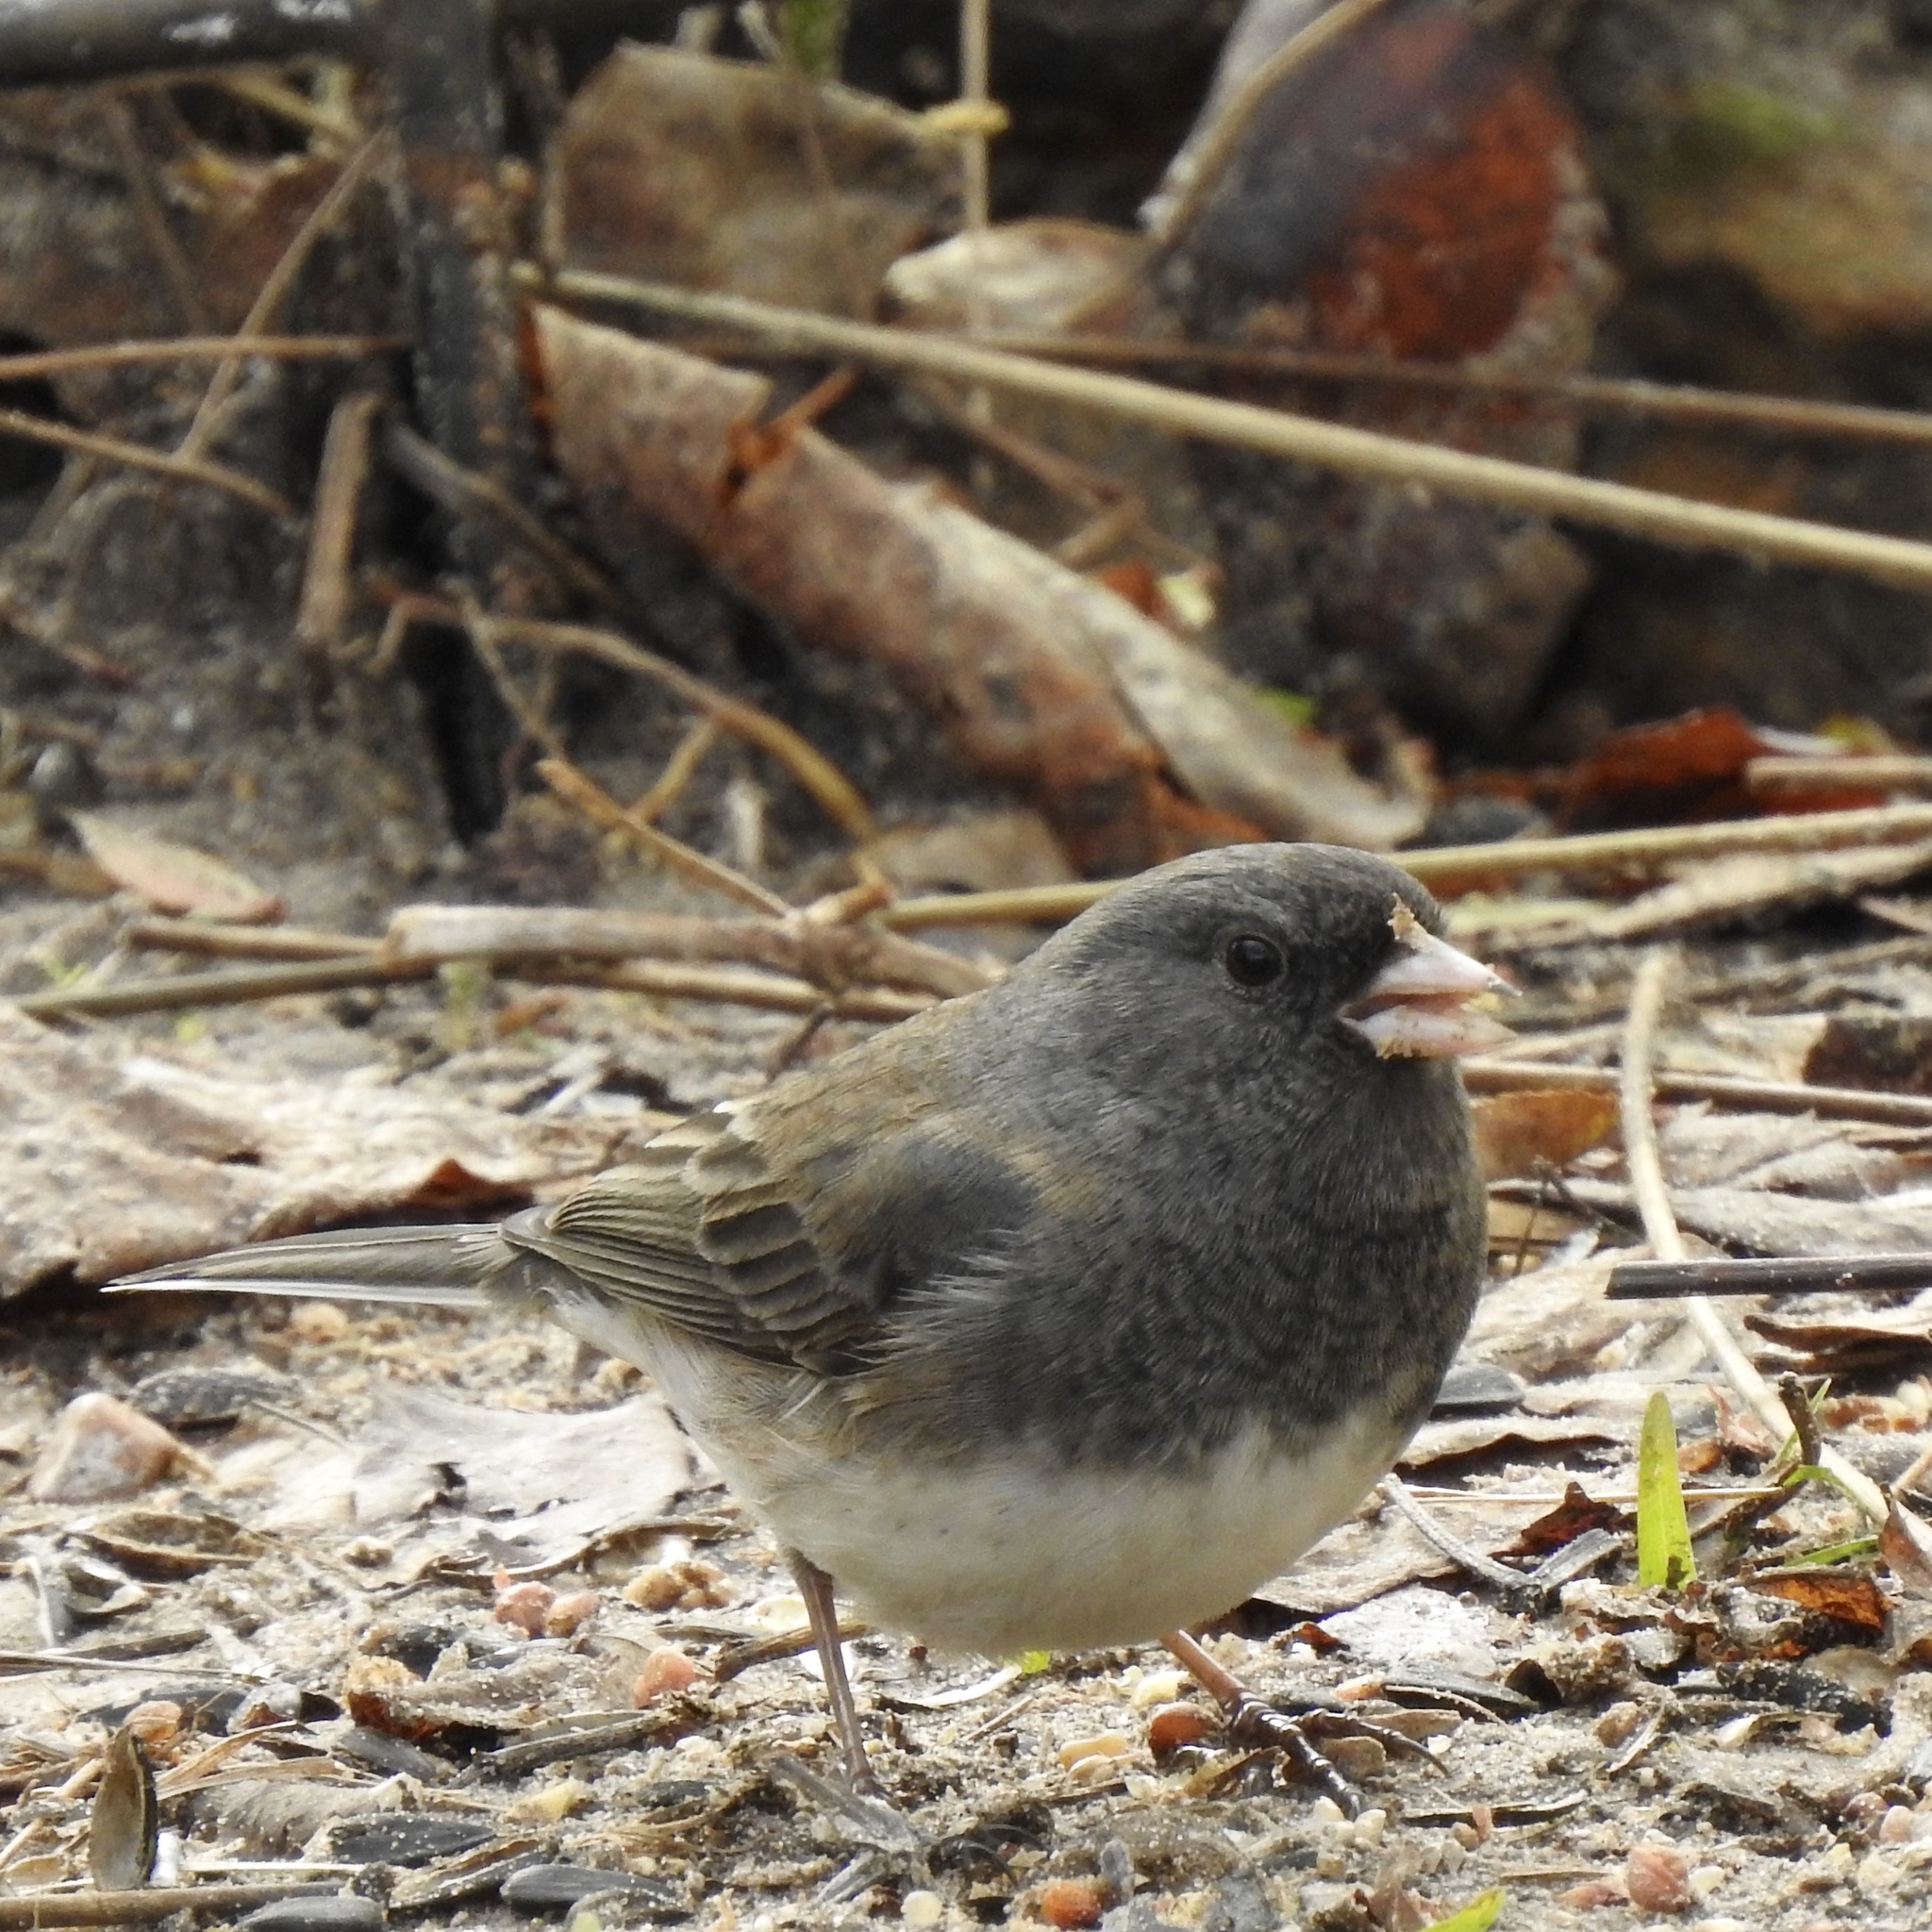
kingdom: Animalia
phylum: Chordata
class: Aves
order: Passeriformes
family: Passerellidae
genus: Junco
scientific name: Junco hyemalis
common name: Dark-eyed junco
